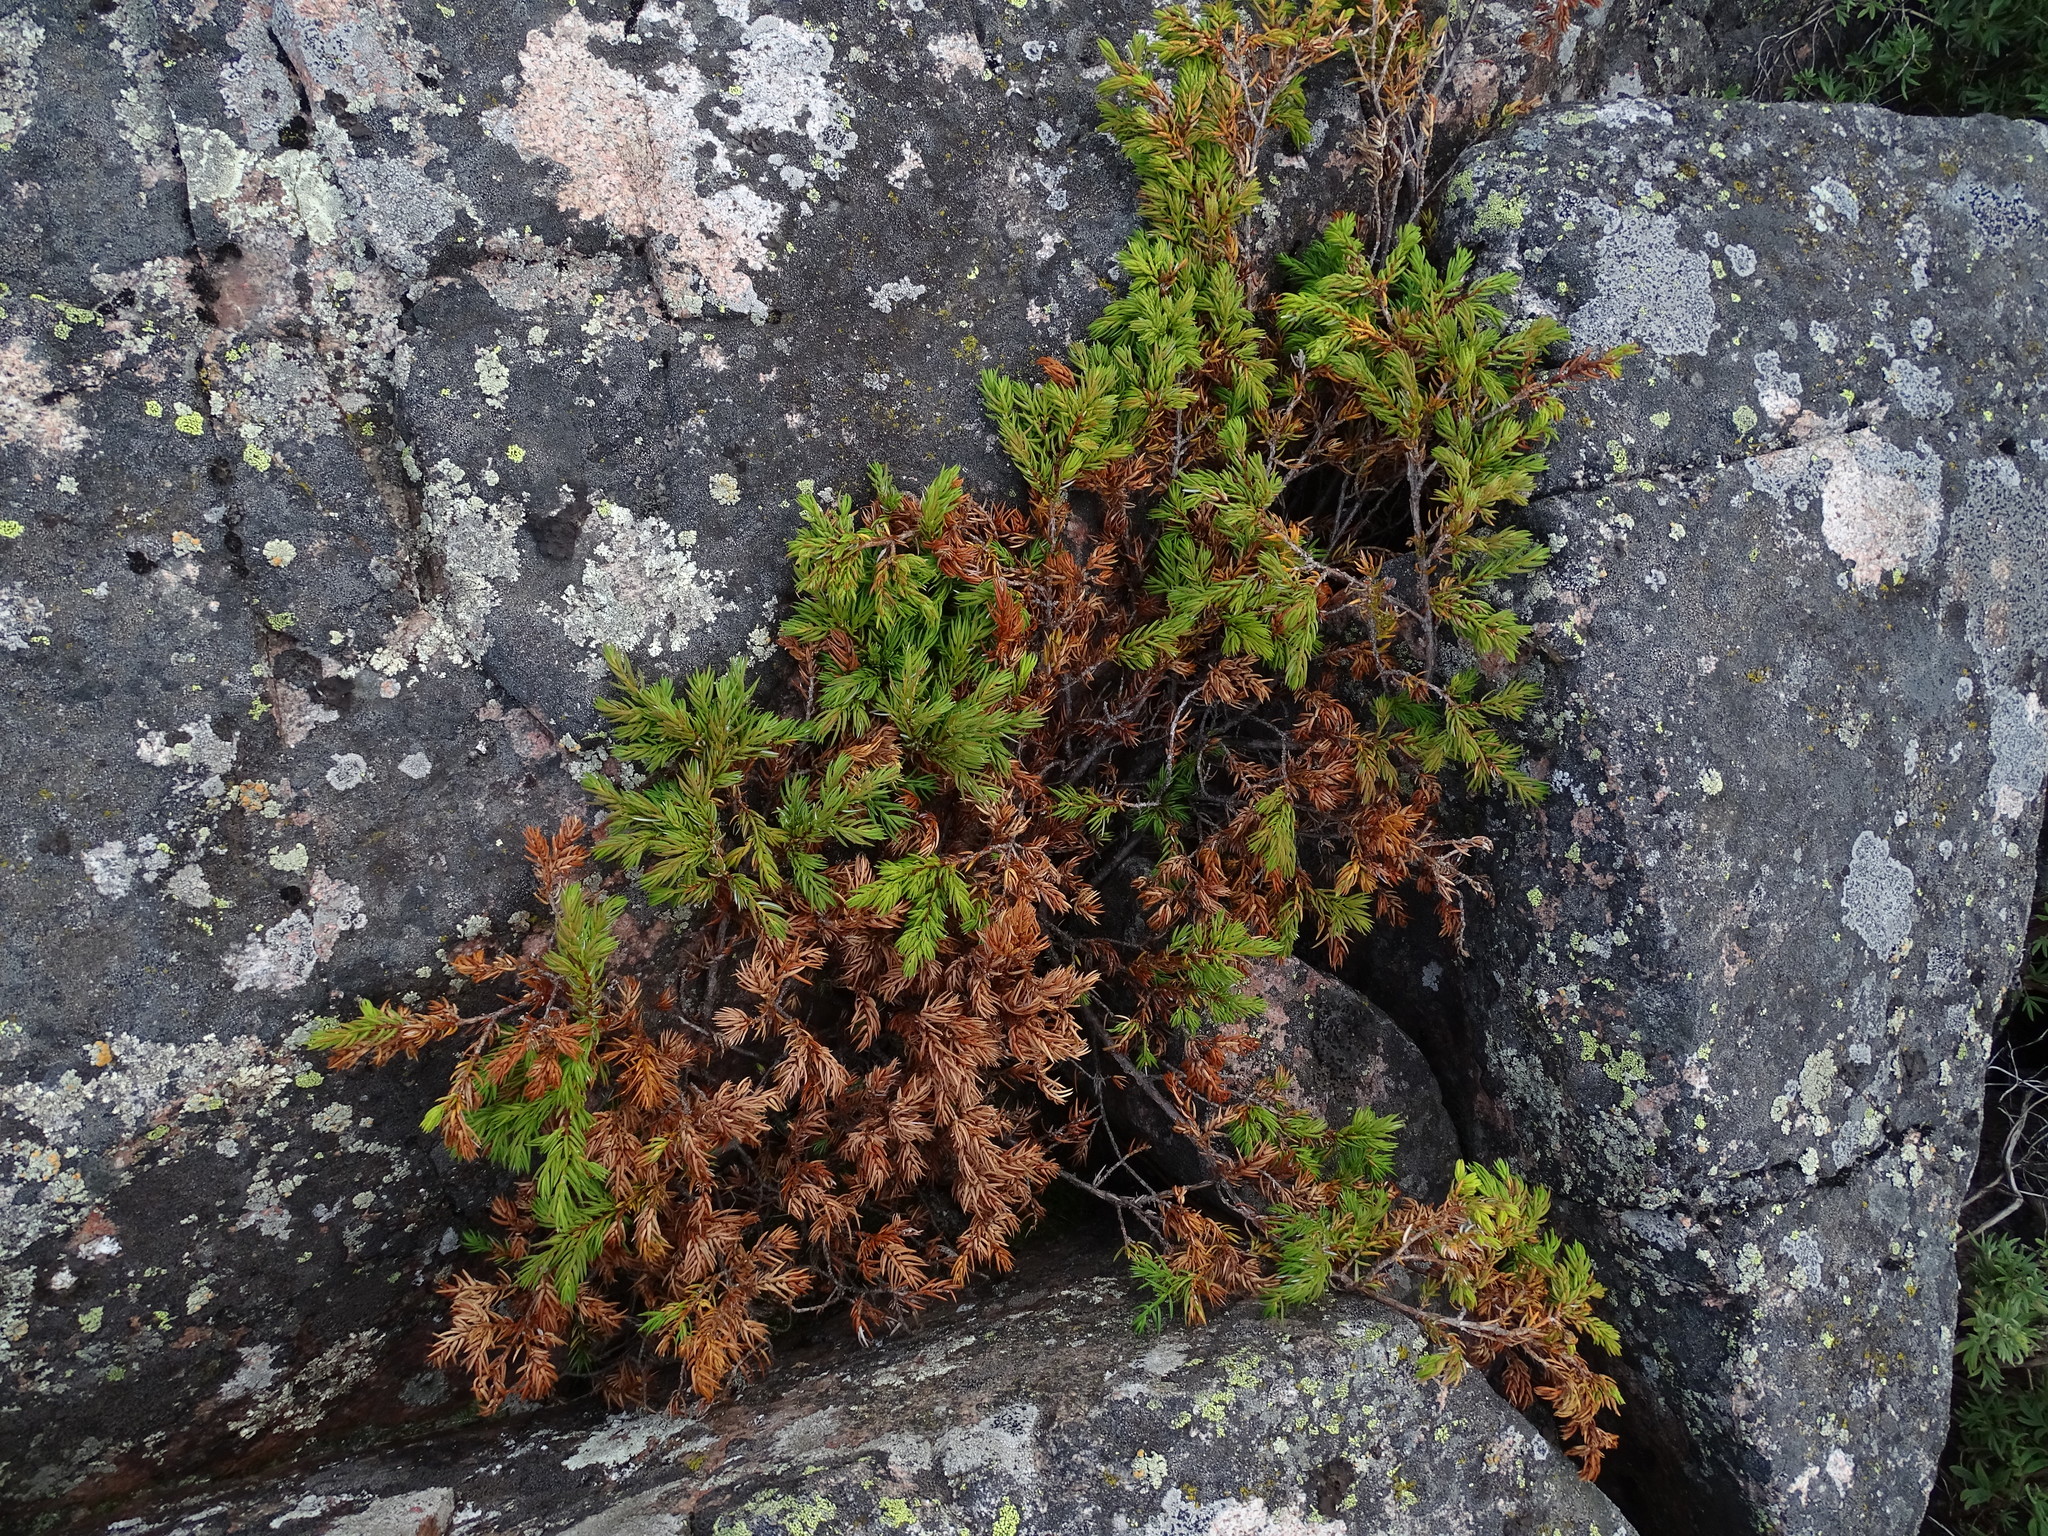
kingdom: Plantae
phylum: Tracheophyta
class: Pinopsida
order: Pinales
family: Cupressaceae
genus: Juniperus
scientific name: Juniperus communis
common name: Common juniper
